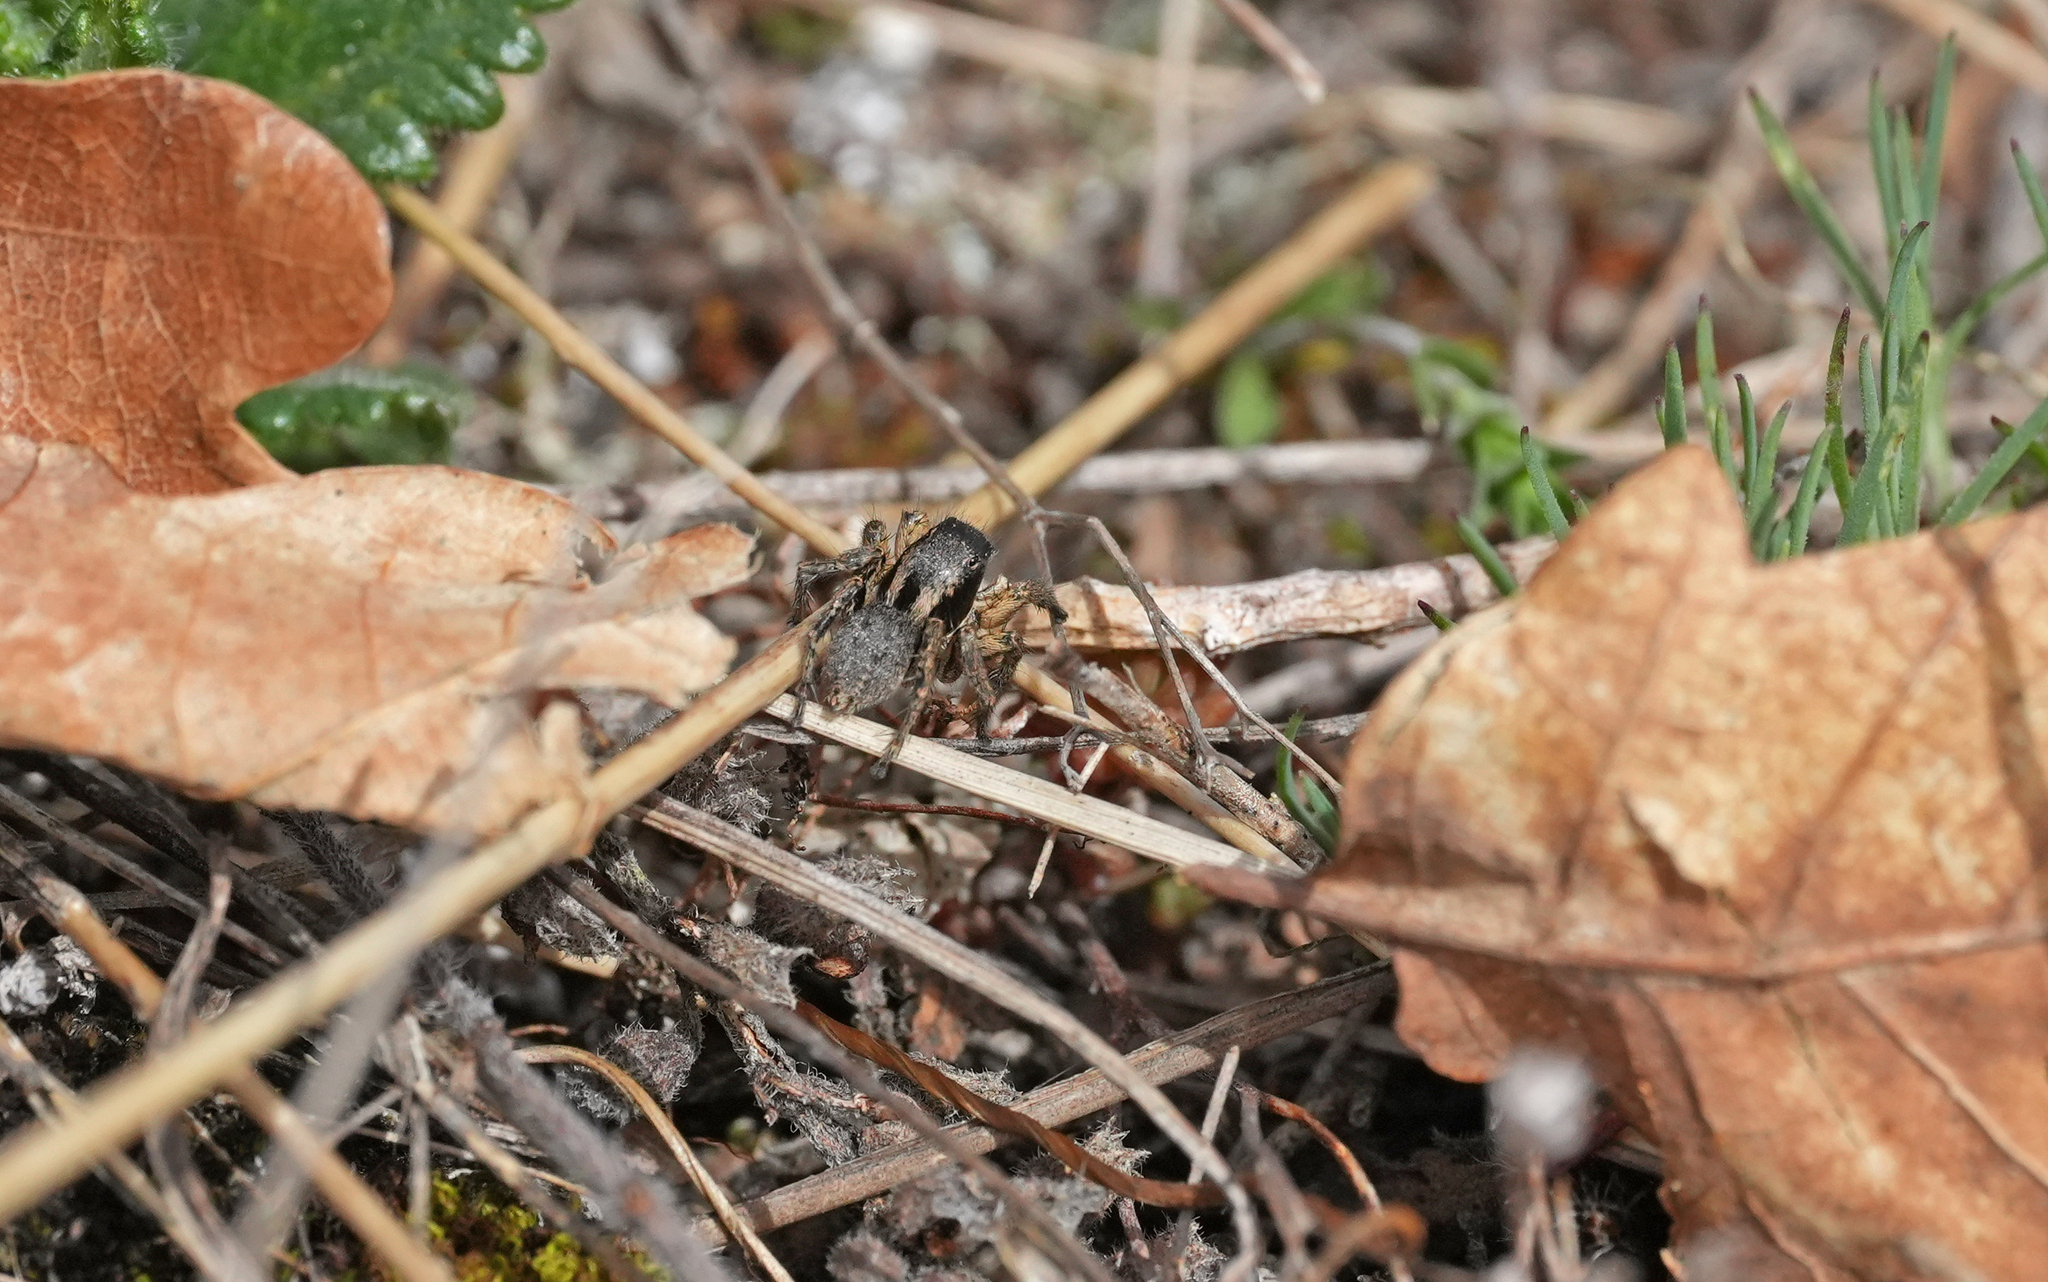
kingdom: Animalia
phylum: Arthropoda
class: Arachnida
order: Araneae
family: Salticidae
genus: Asianellus
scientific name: Asianellus festivus
